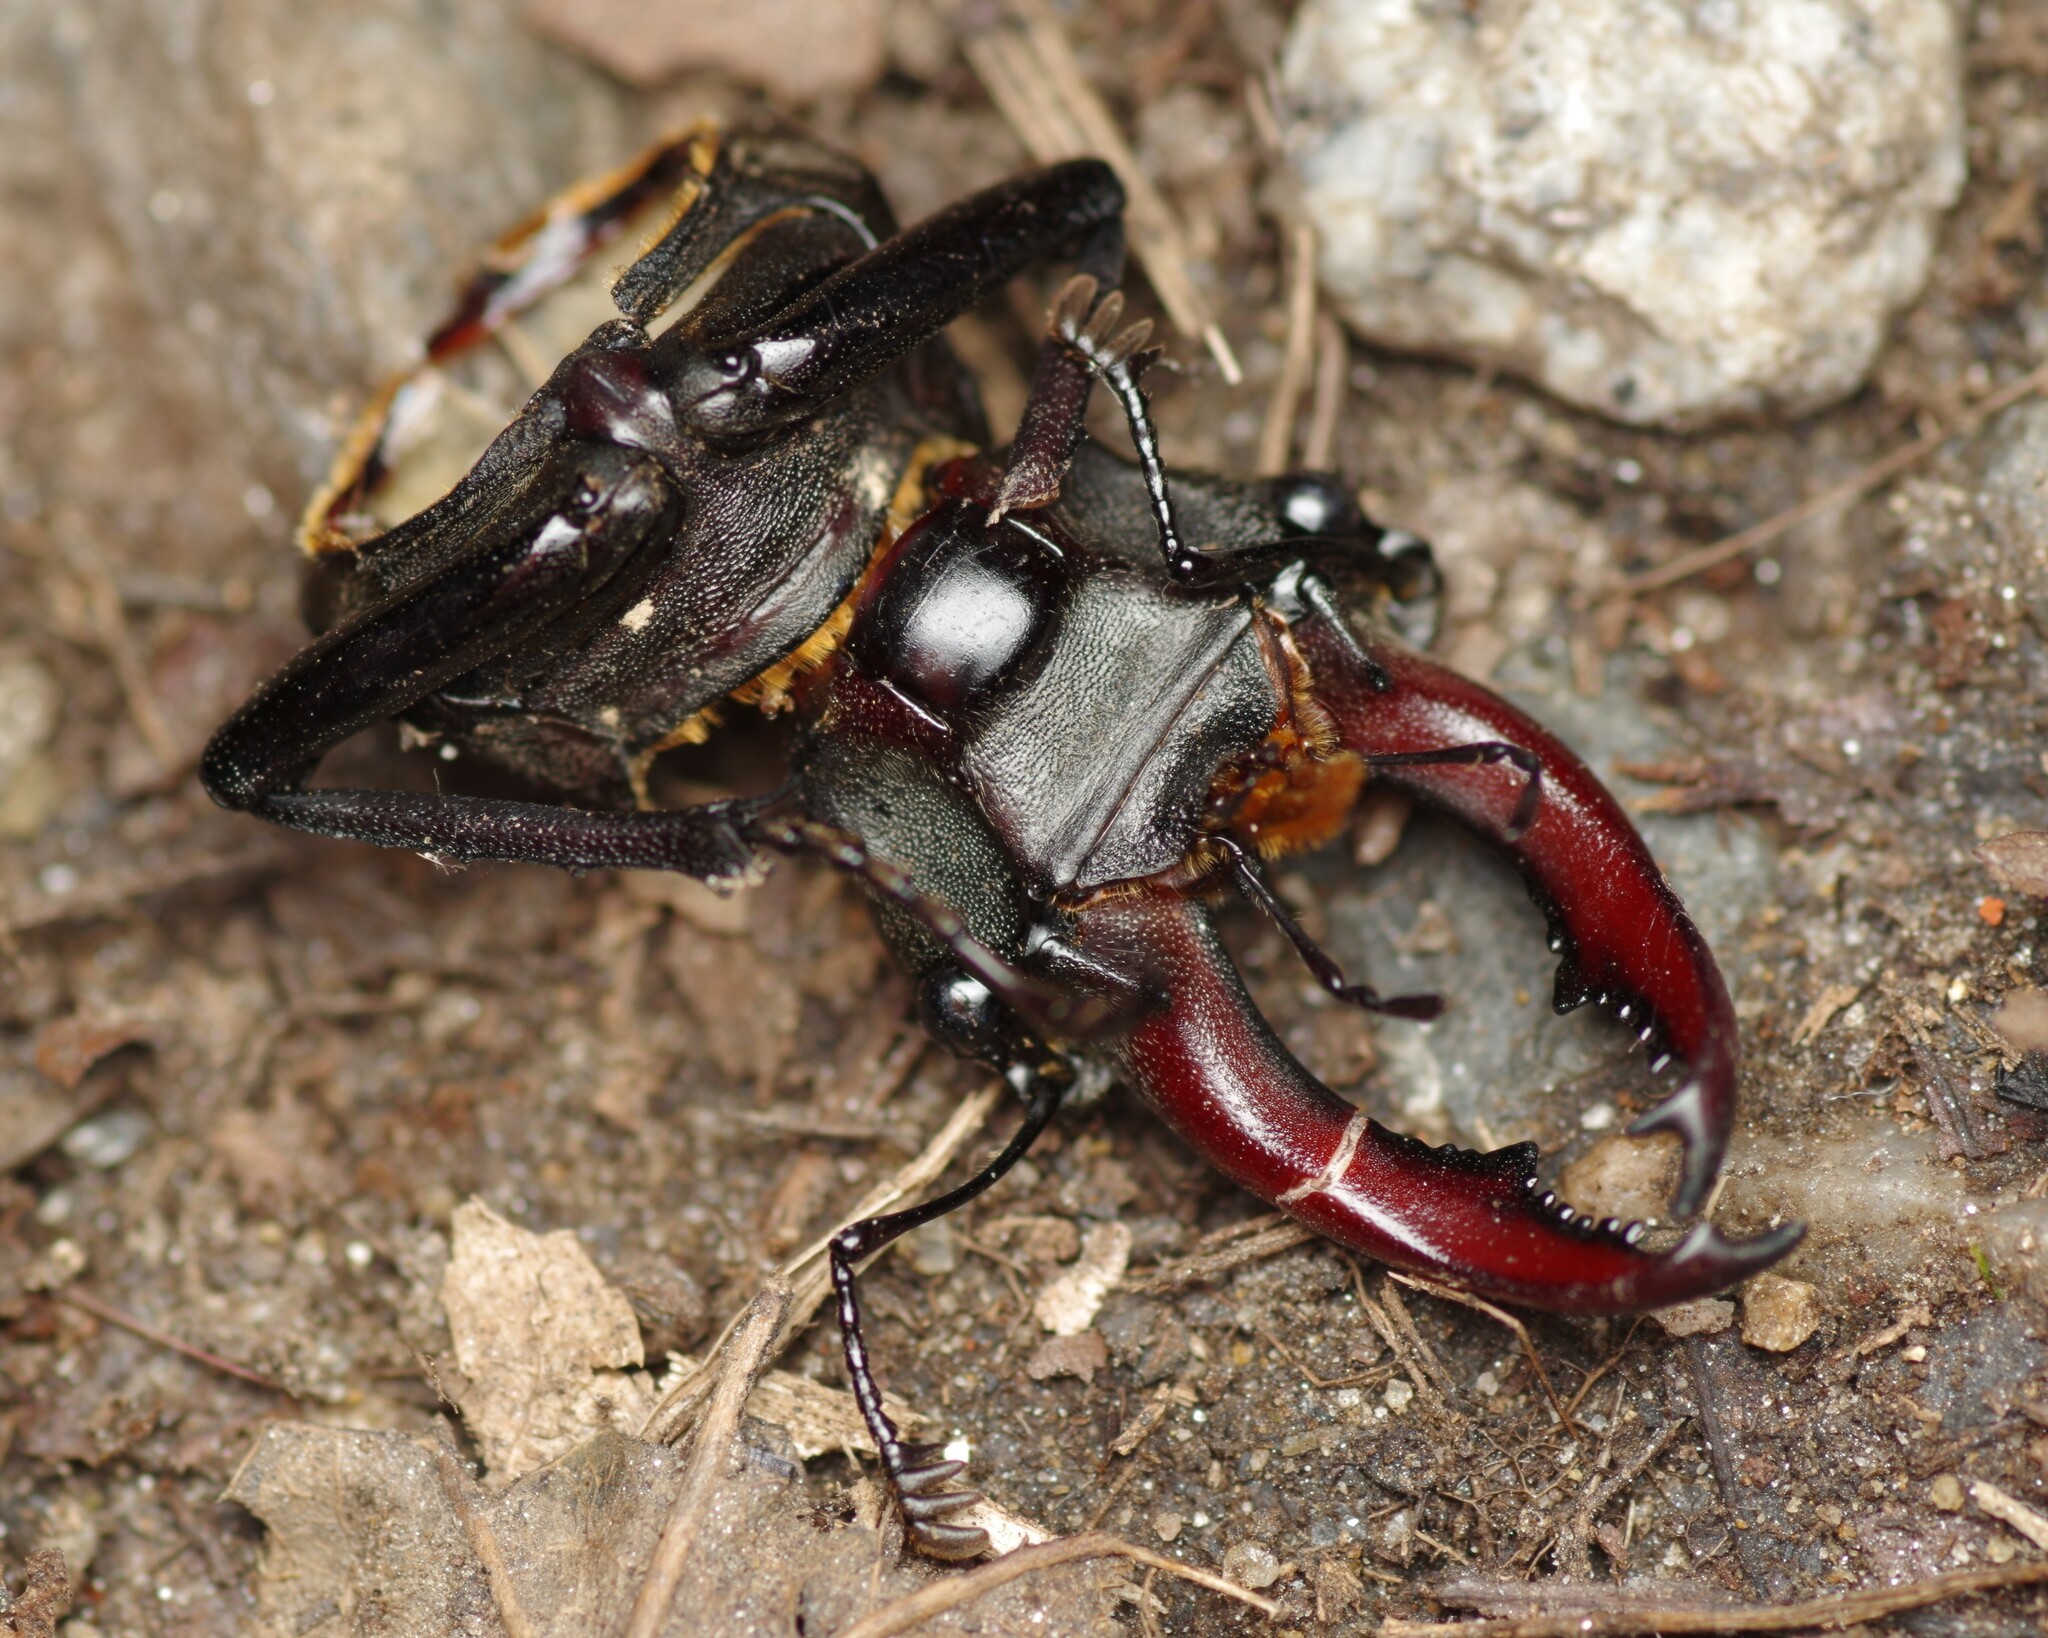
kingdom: Animalia
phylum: Arthropoda
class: Insecta
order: Coleoptera
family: Lucanidae
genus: Lucanus
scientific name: Lucanus cervus
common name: Stag beetle
